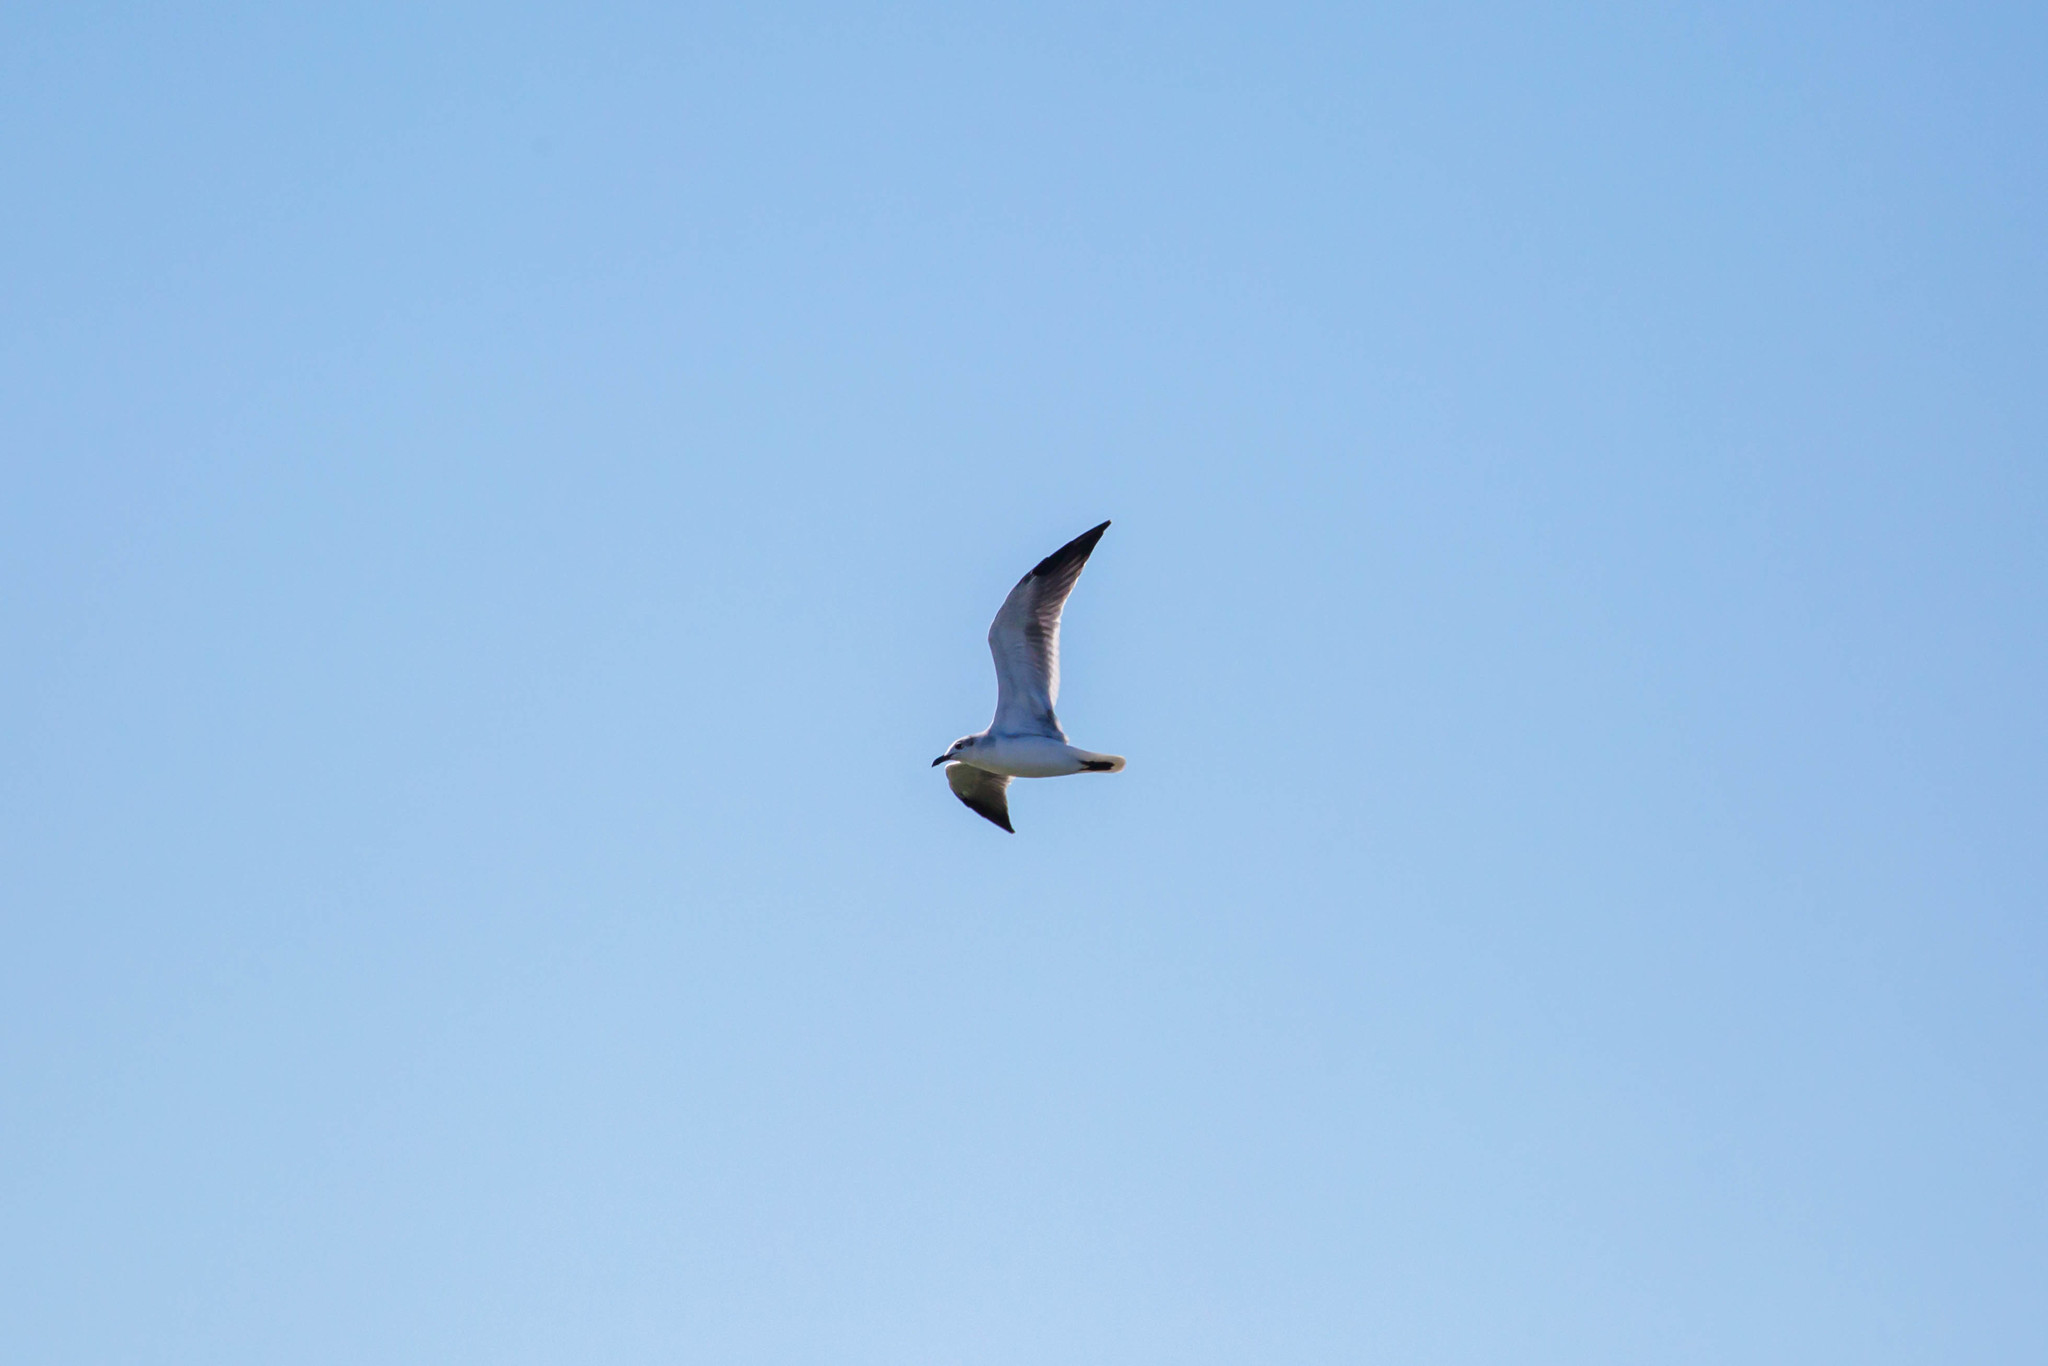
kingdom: Animalia
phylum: Chordata
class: Aves
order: Charadriiformes
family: Laridae
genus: Leucophaeus
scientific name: Leucophaeus atricilla
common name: Laughing gull
